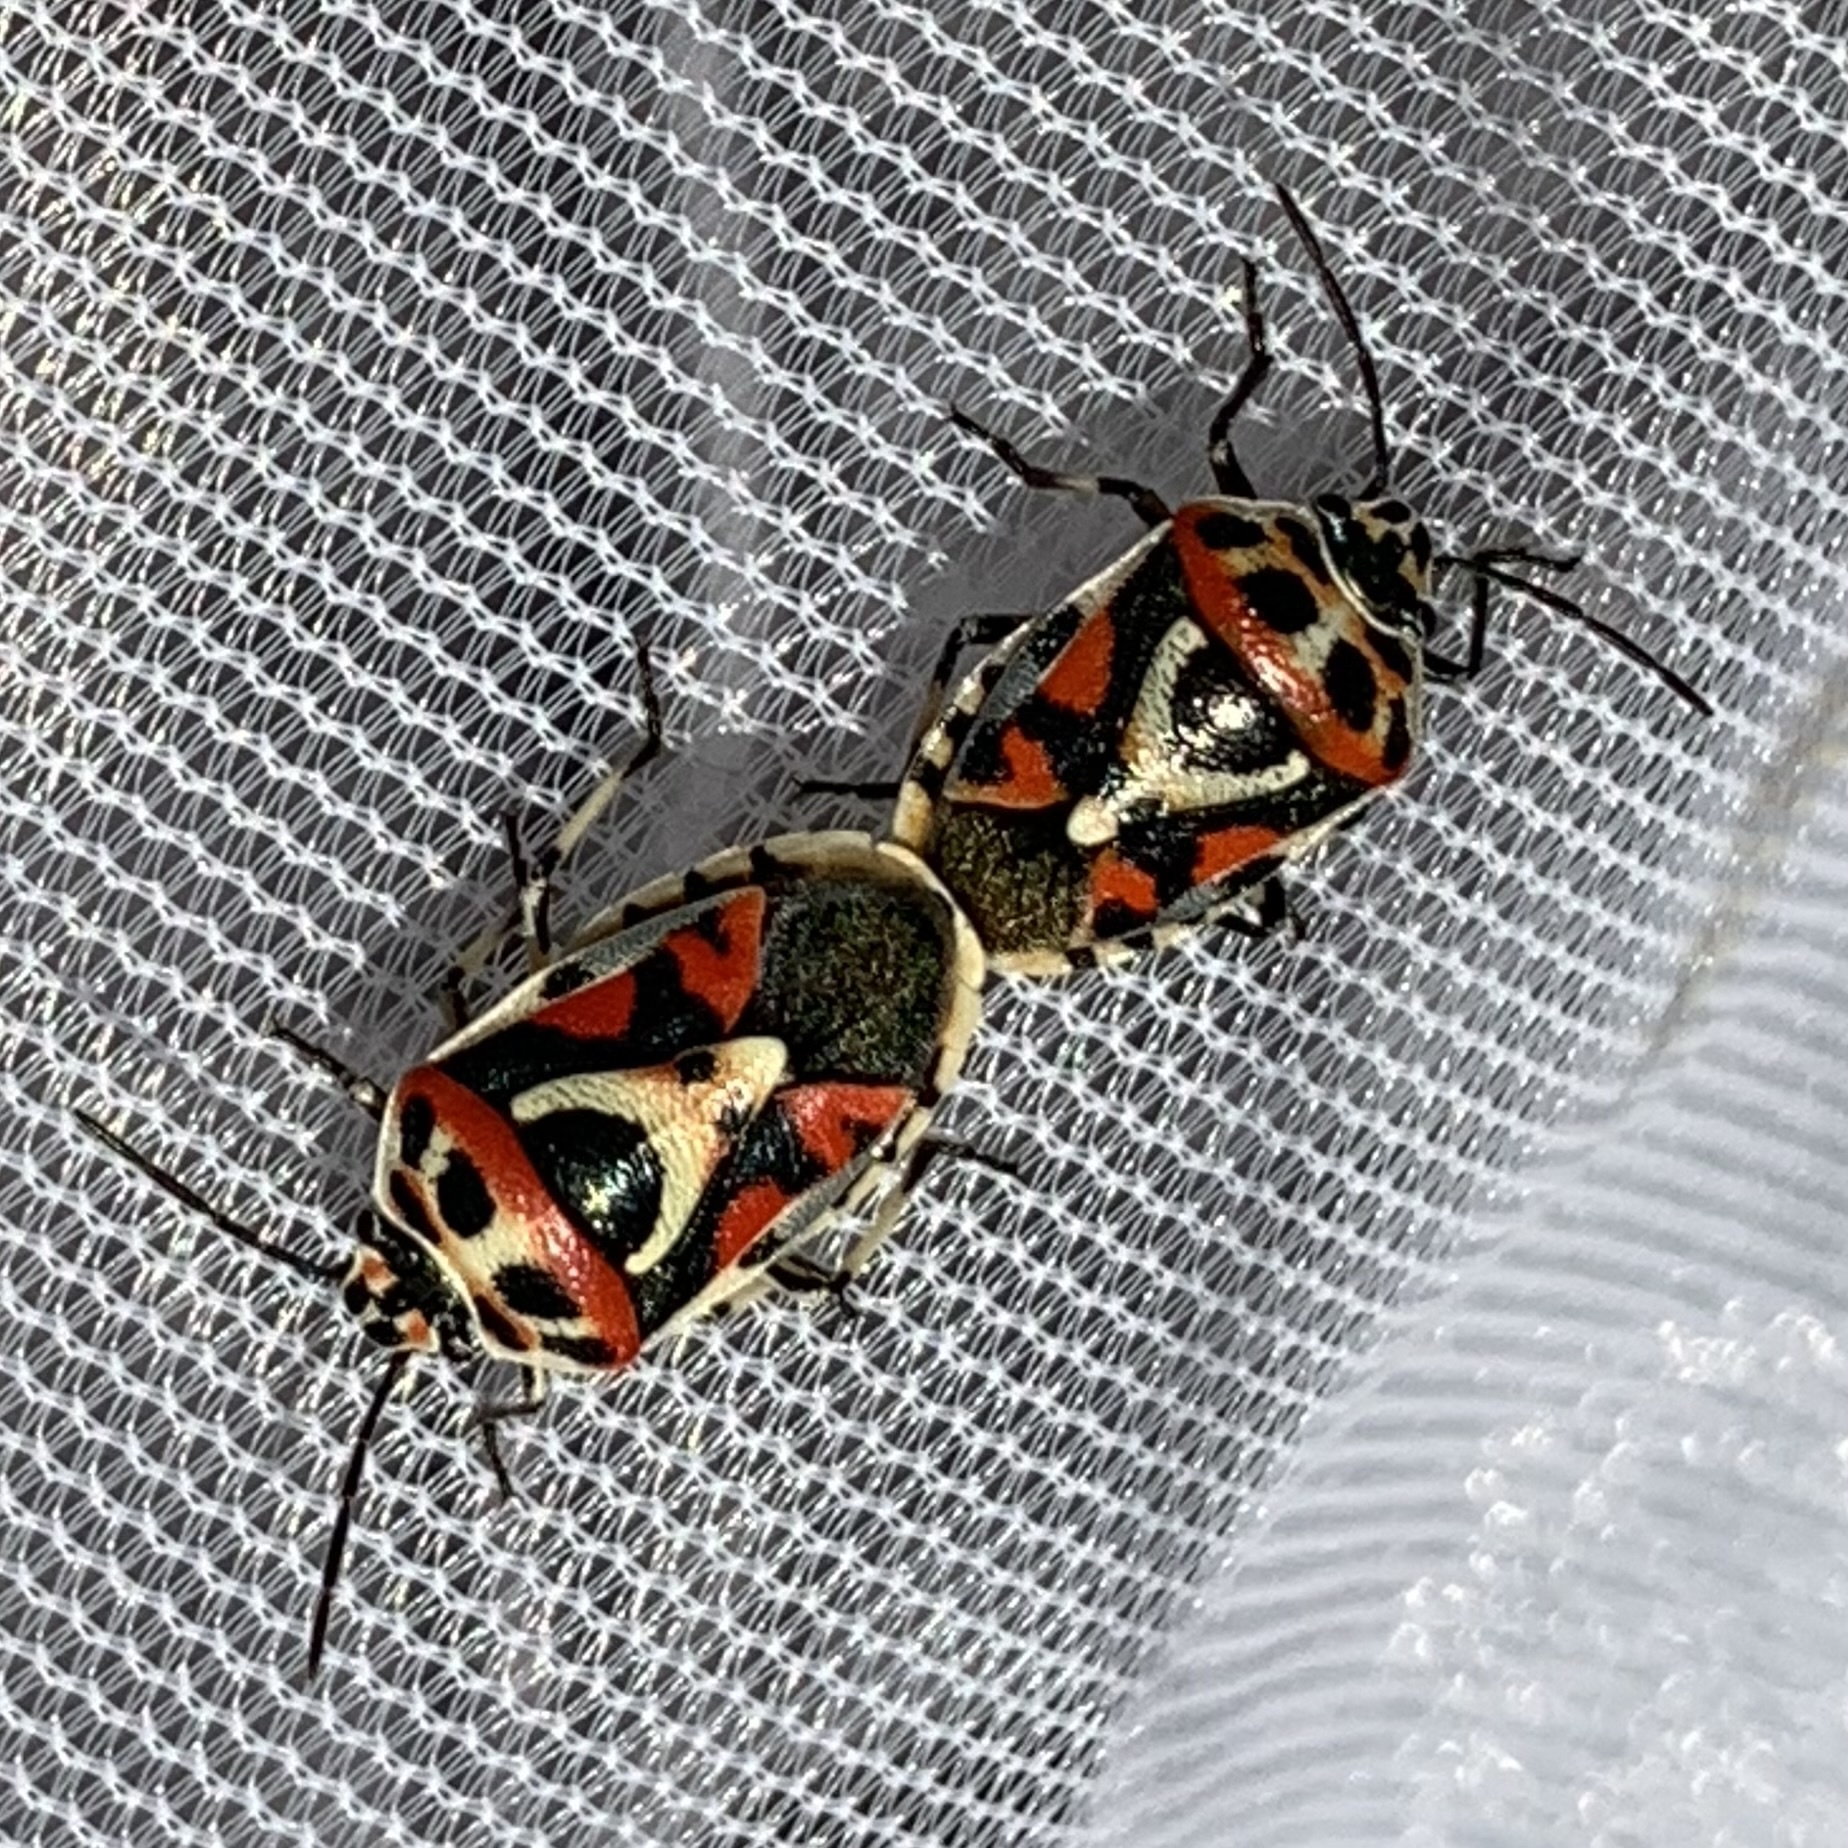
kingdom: Animalia
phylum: Arthropoda
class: Insecta
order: Hemiptera
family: Pentatomidae
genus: Eurydema
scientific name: Eurydema ornata
